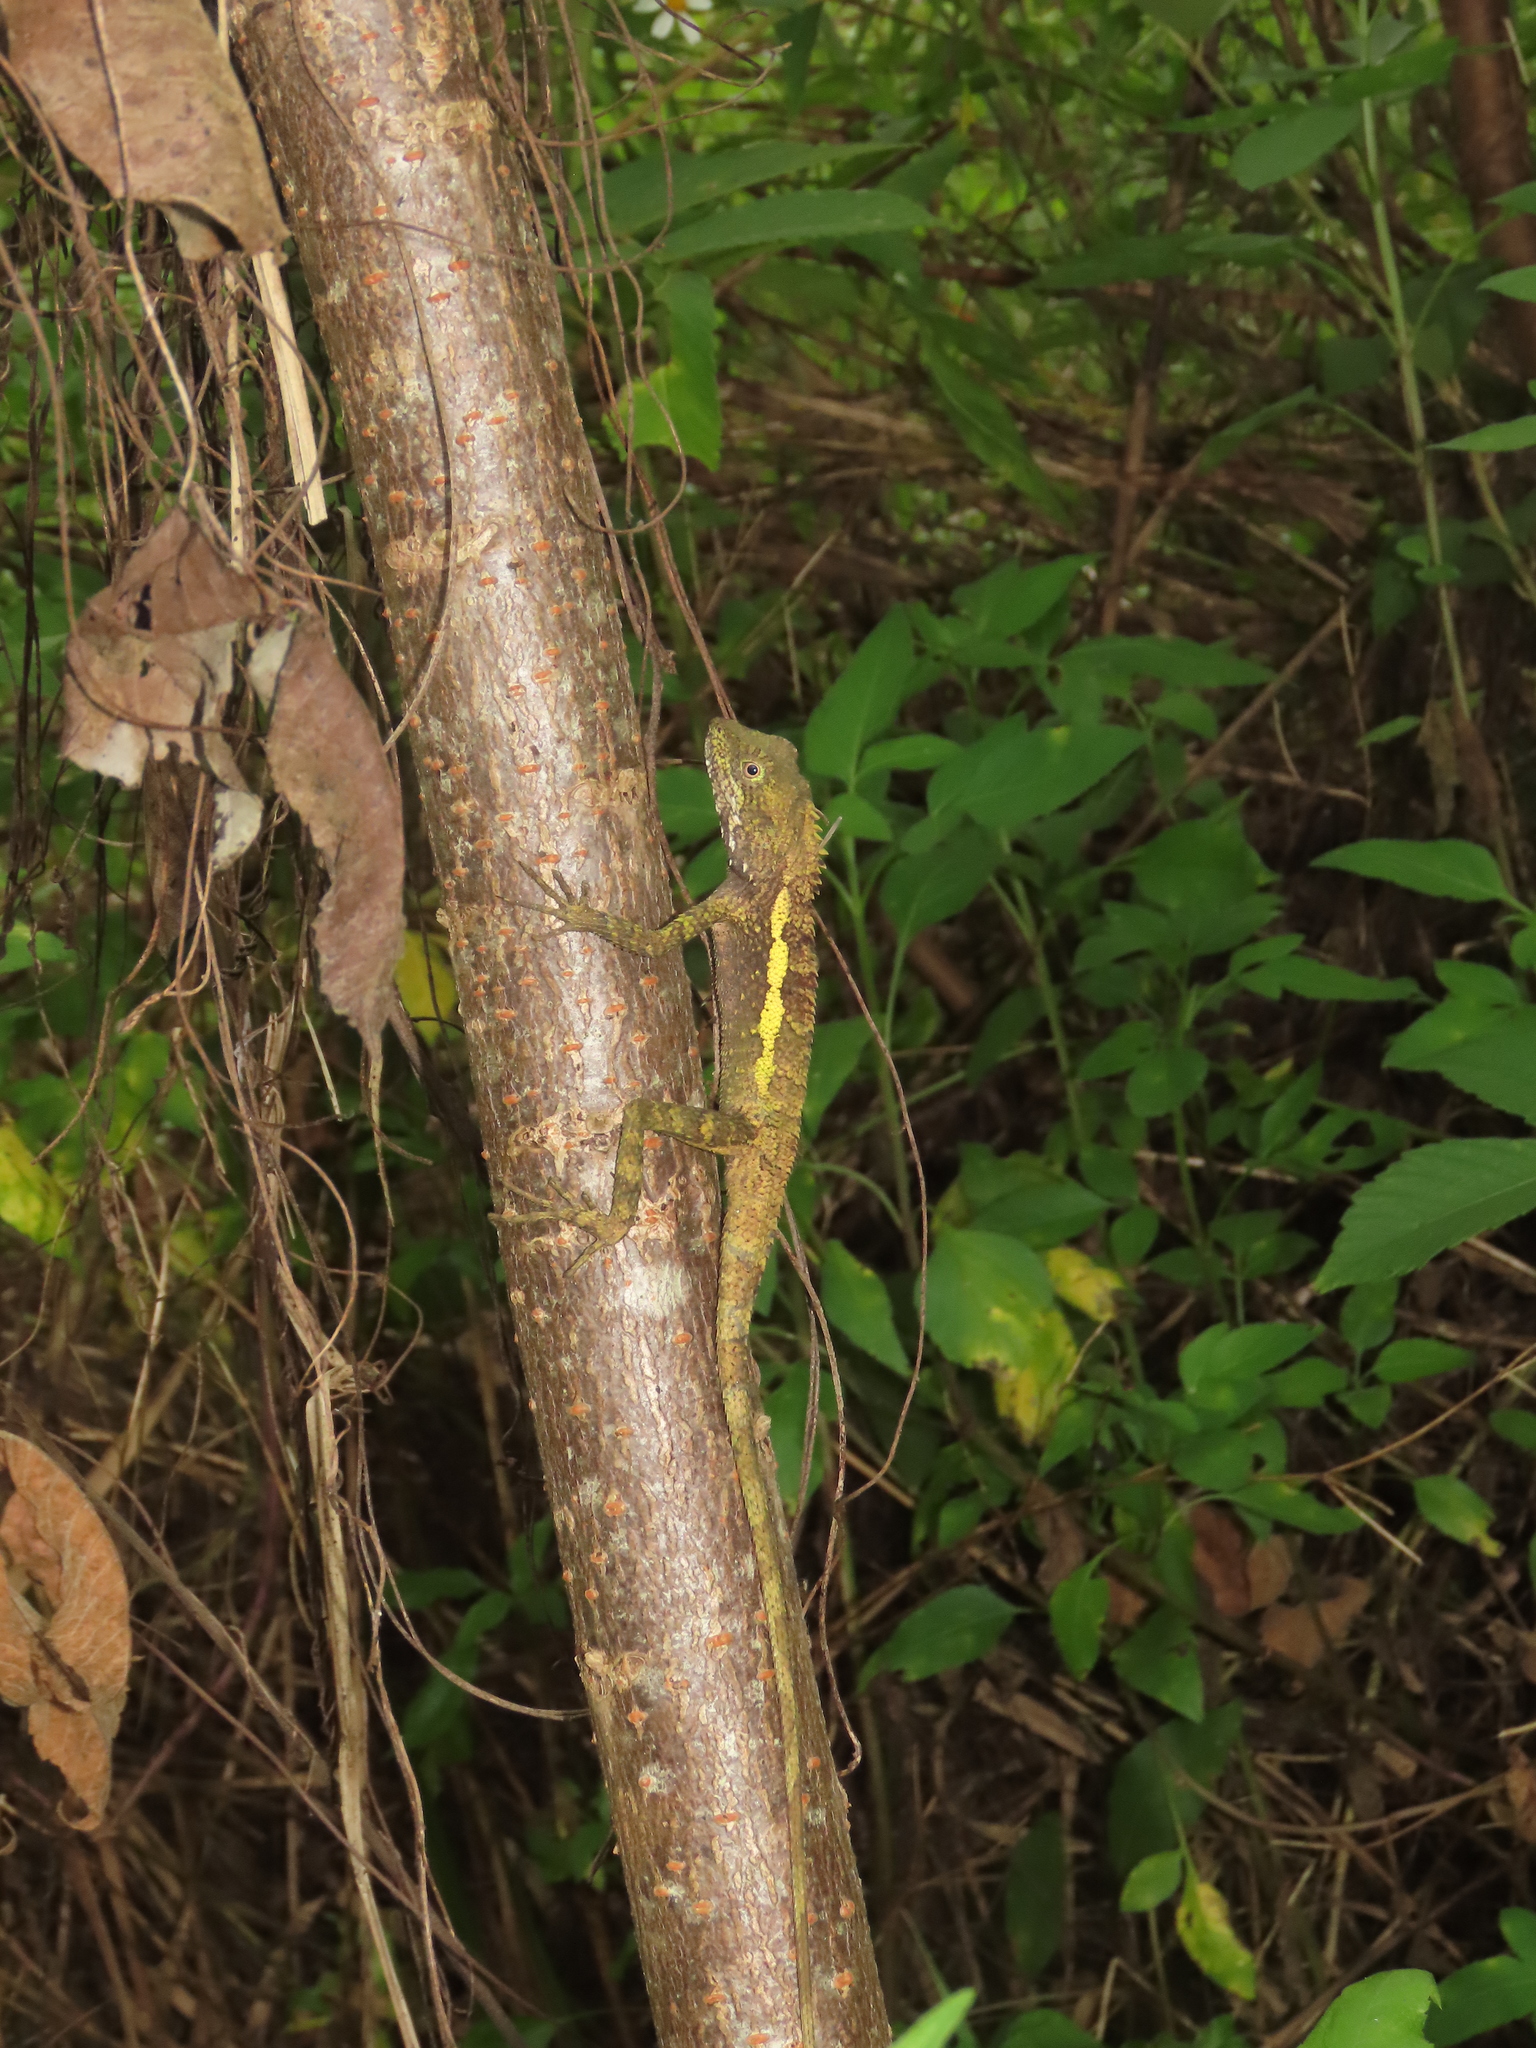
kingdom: Animalia
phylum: Chordata
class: Squamata
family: Agamidae
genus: Diploderma
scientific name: Diploderma swinhonis
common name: Taiwan japalure
